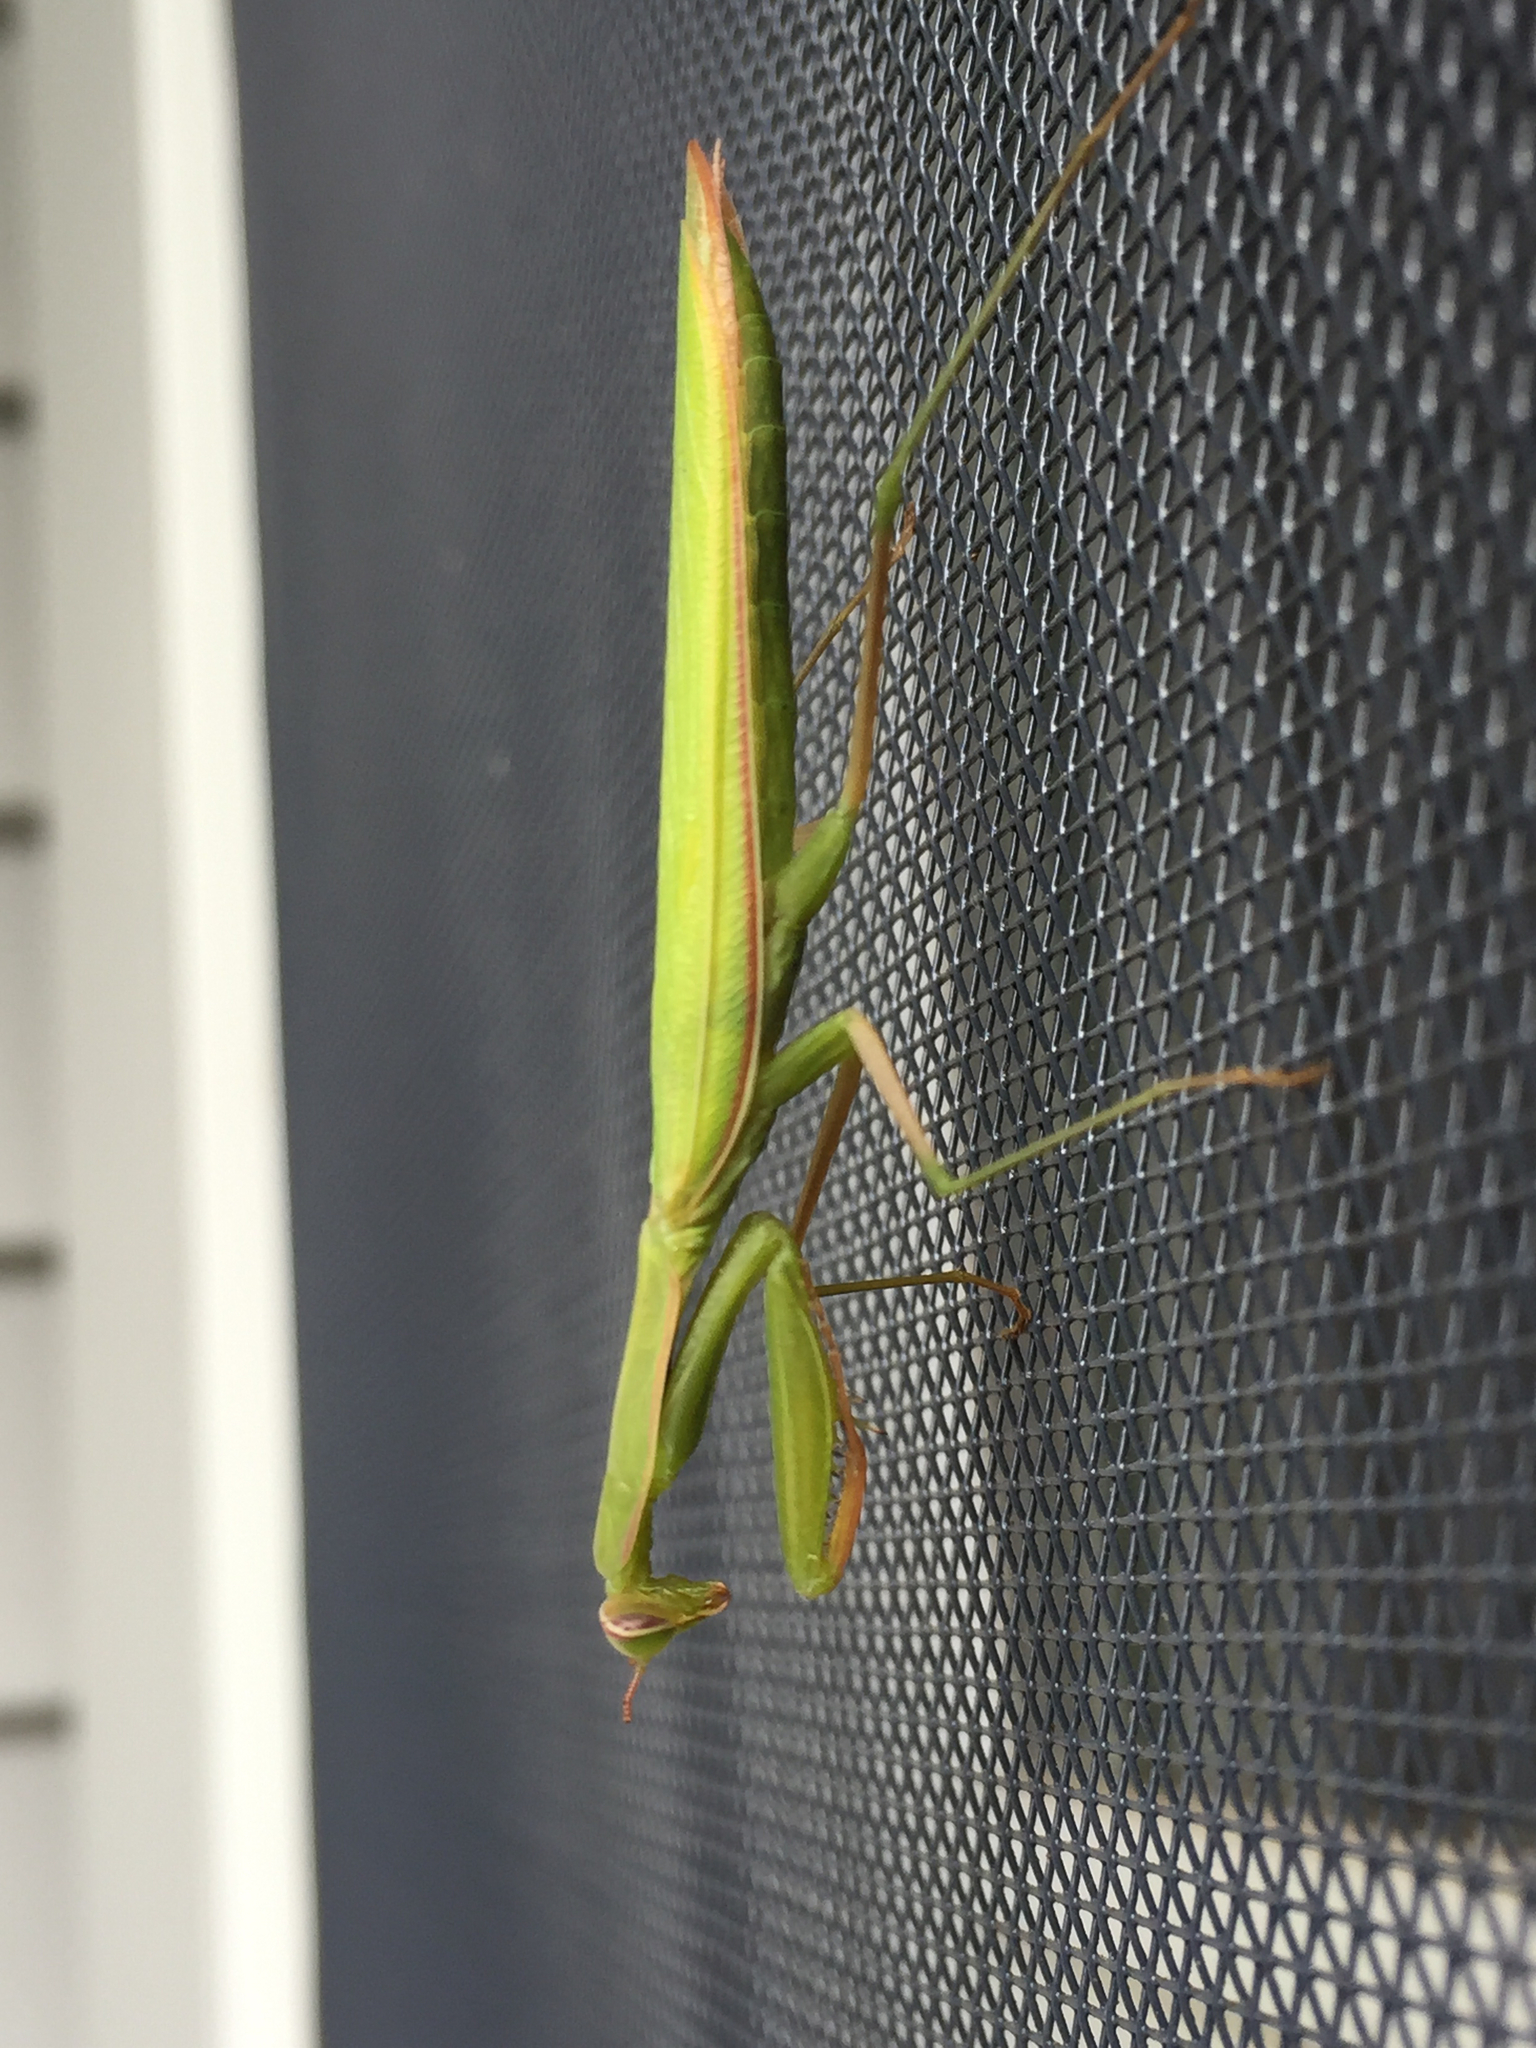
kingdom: Animalia
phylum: Arthropoda
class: Insecta
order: Mantodea
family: Mantidae
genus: Mantis
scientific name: Mantis religiosa
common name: Praying mantis
